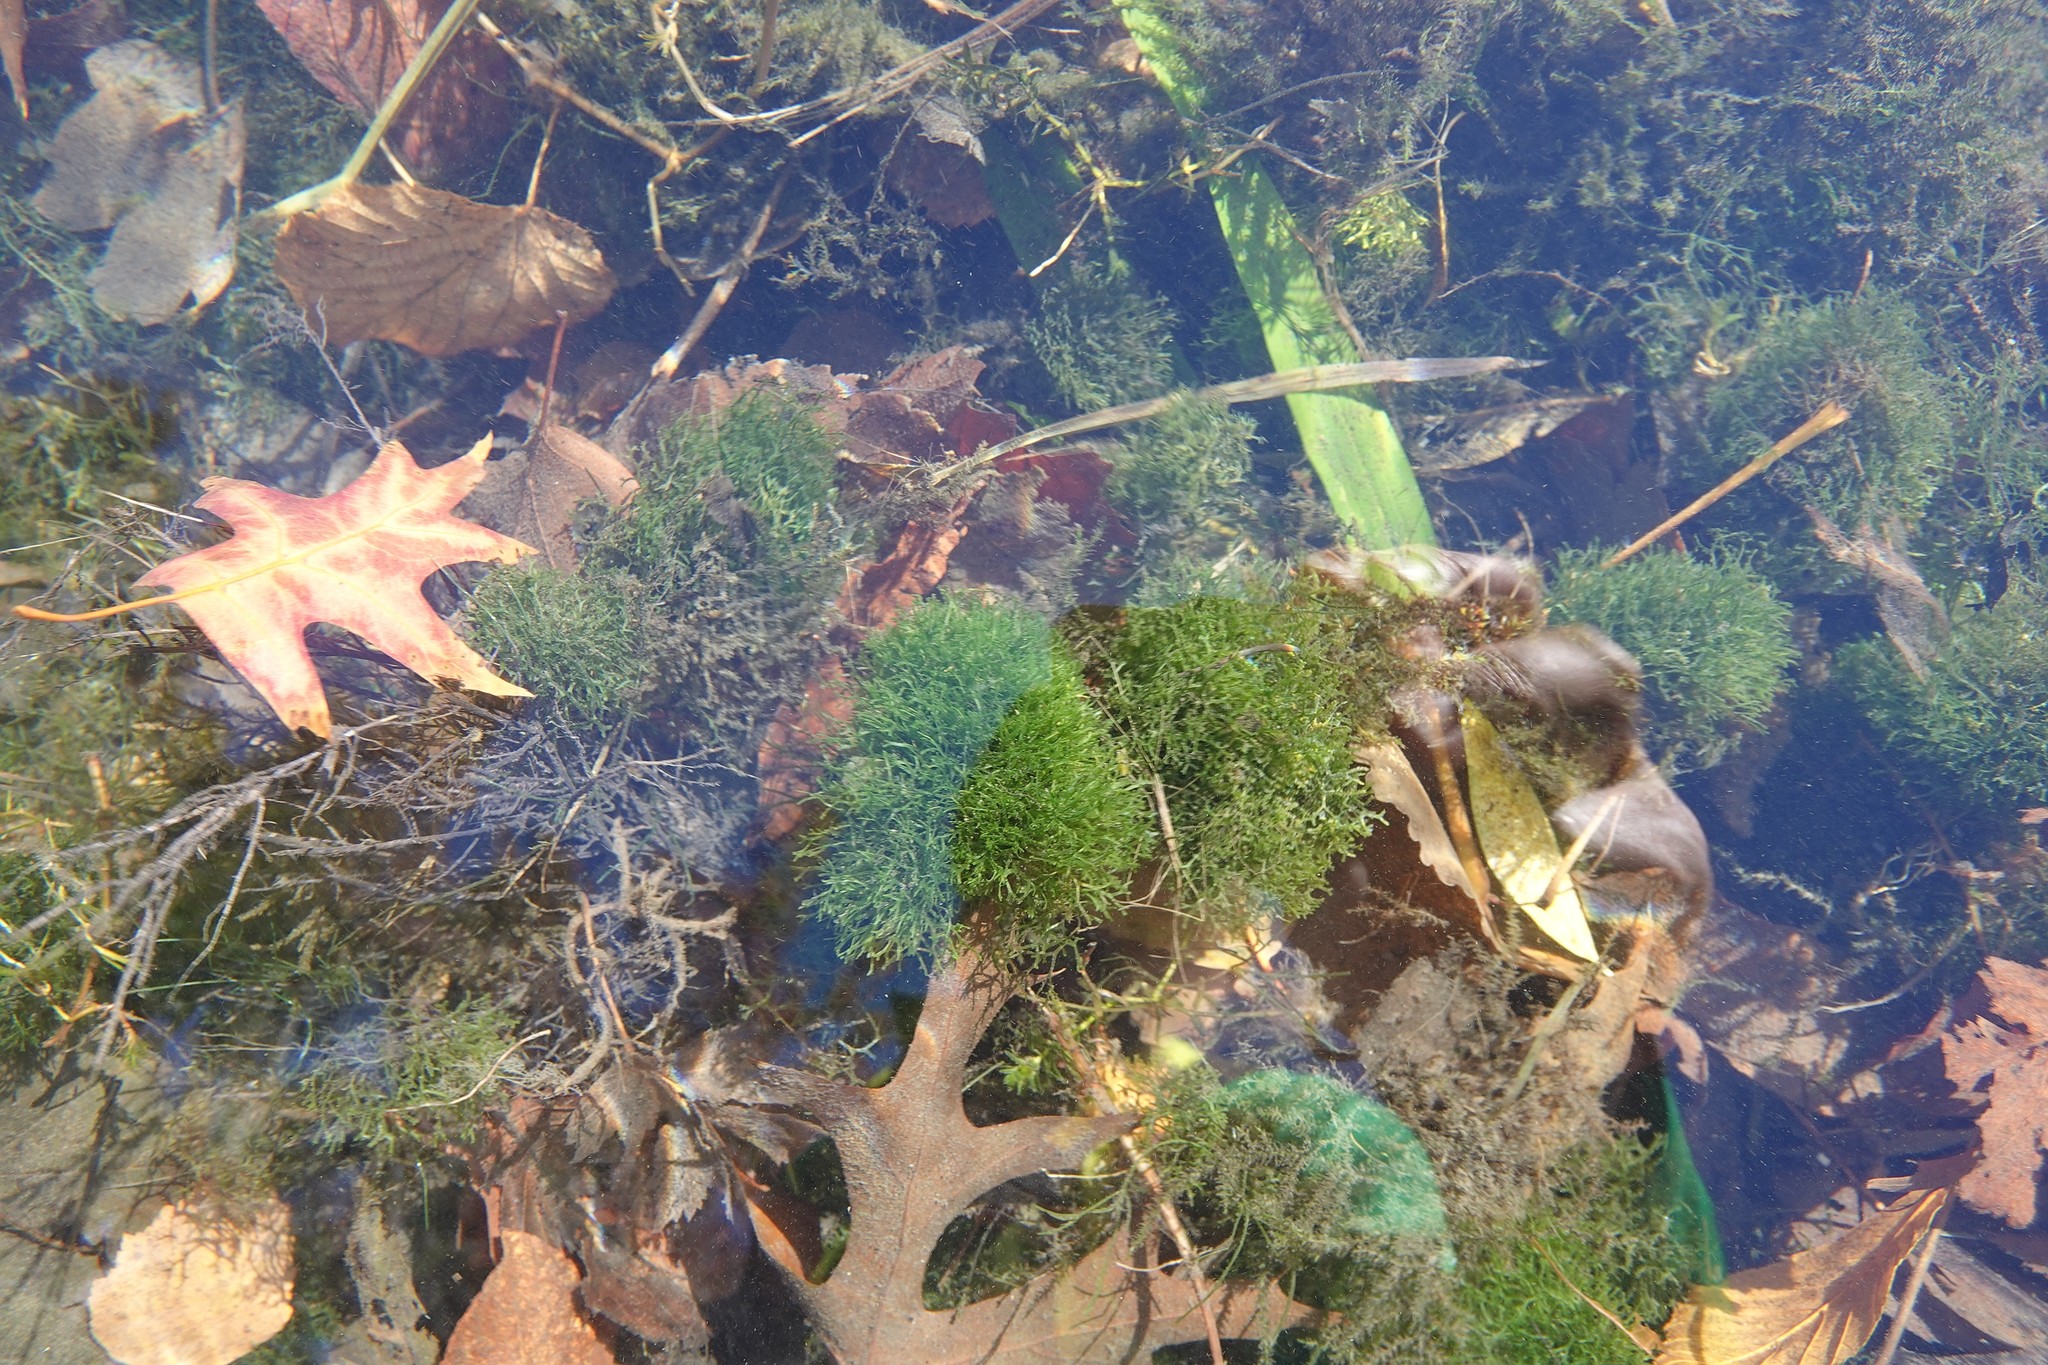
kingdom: Plantae
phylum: Marchantiophyta
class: Marchantiopsida
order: Marchantiales
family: Ricciaceae
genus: Riccia
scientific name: Riccia fluitans
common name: Floating crystalwort
